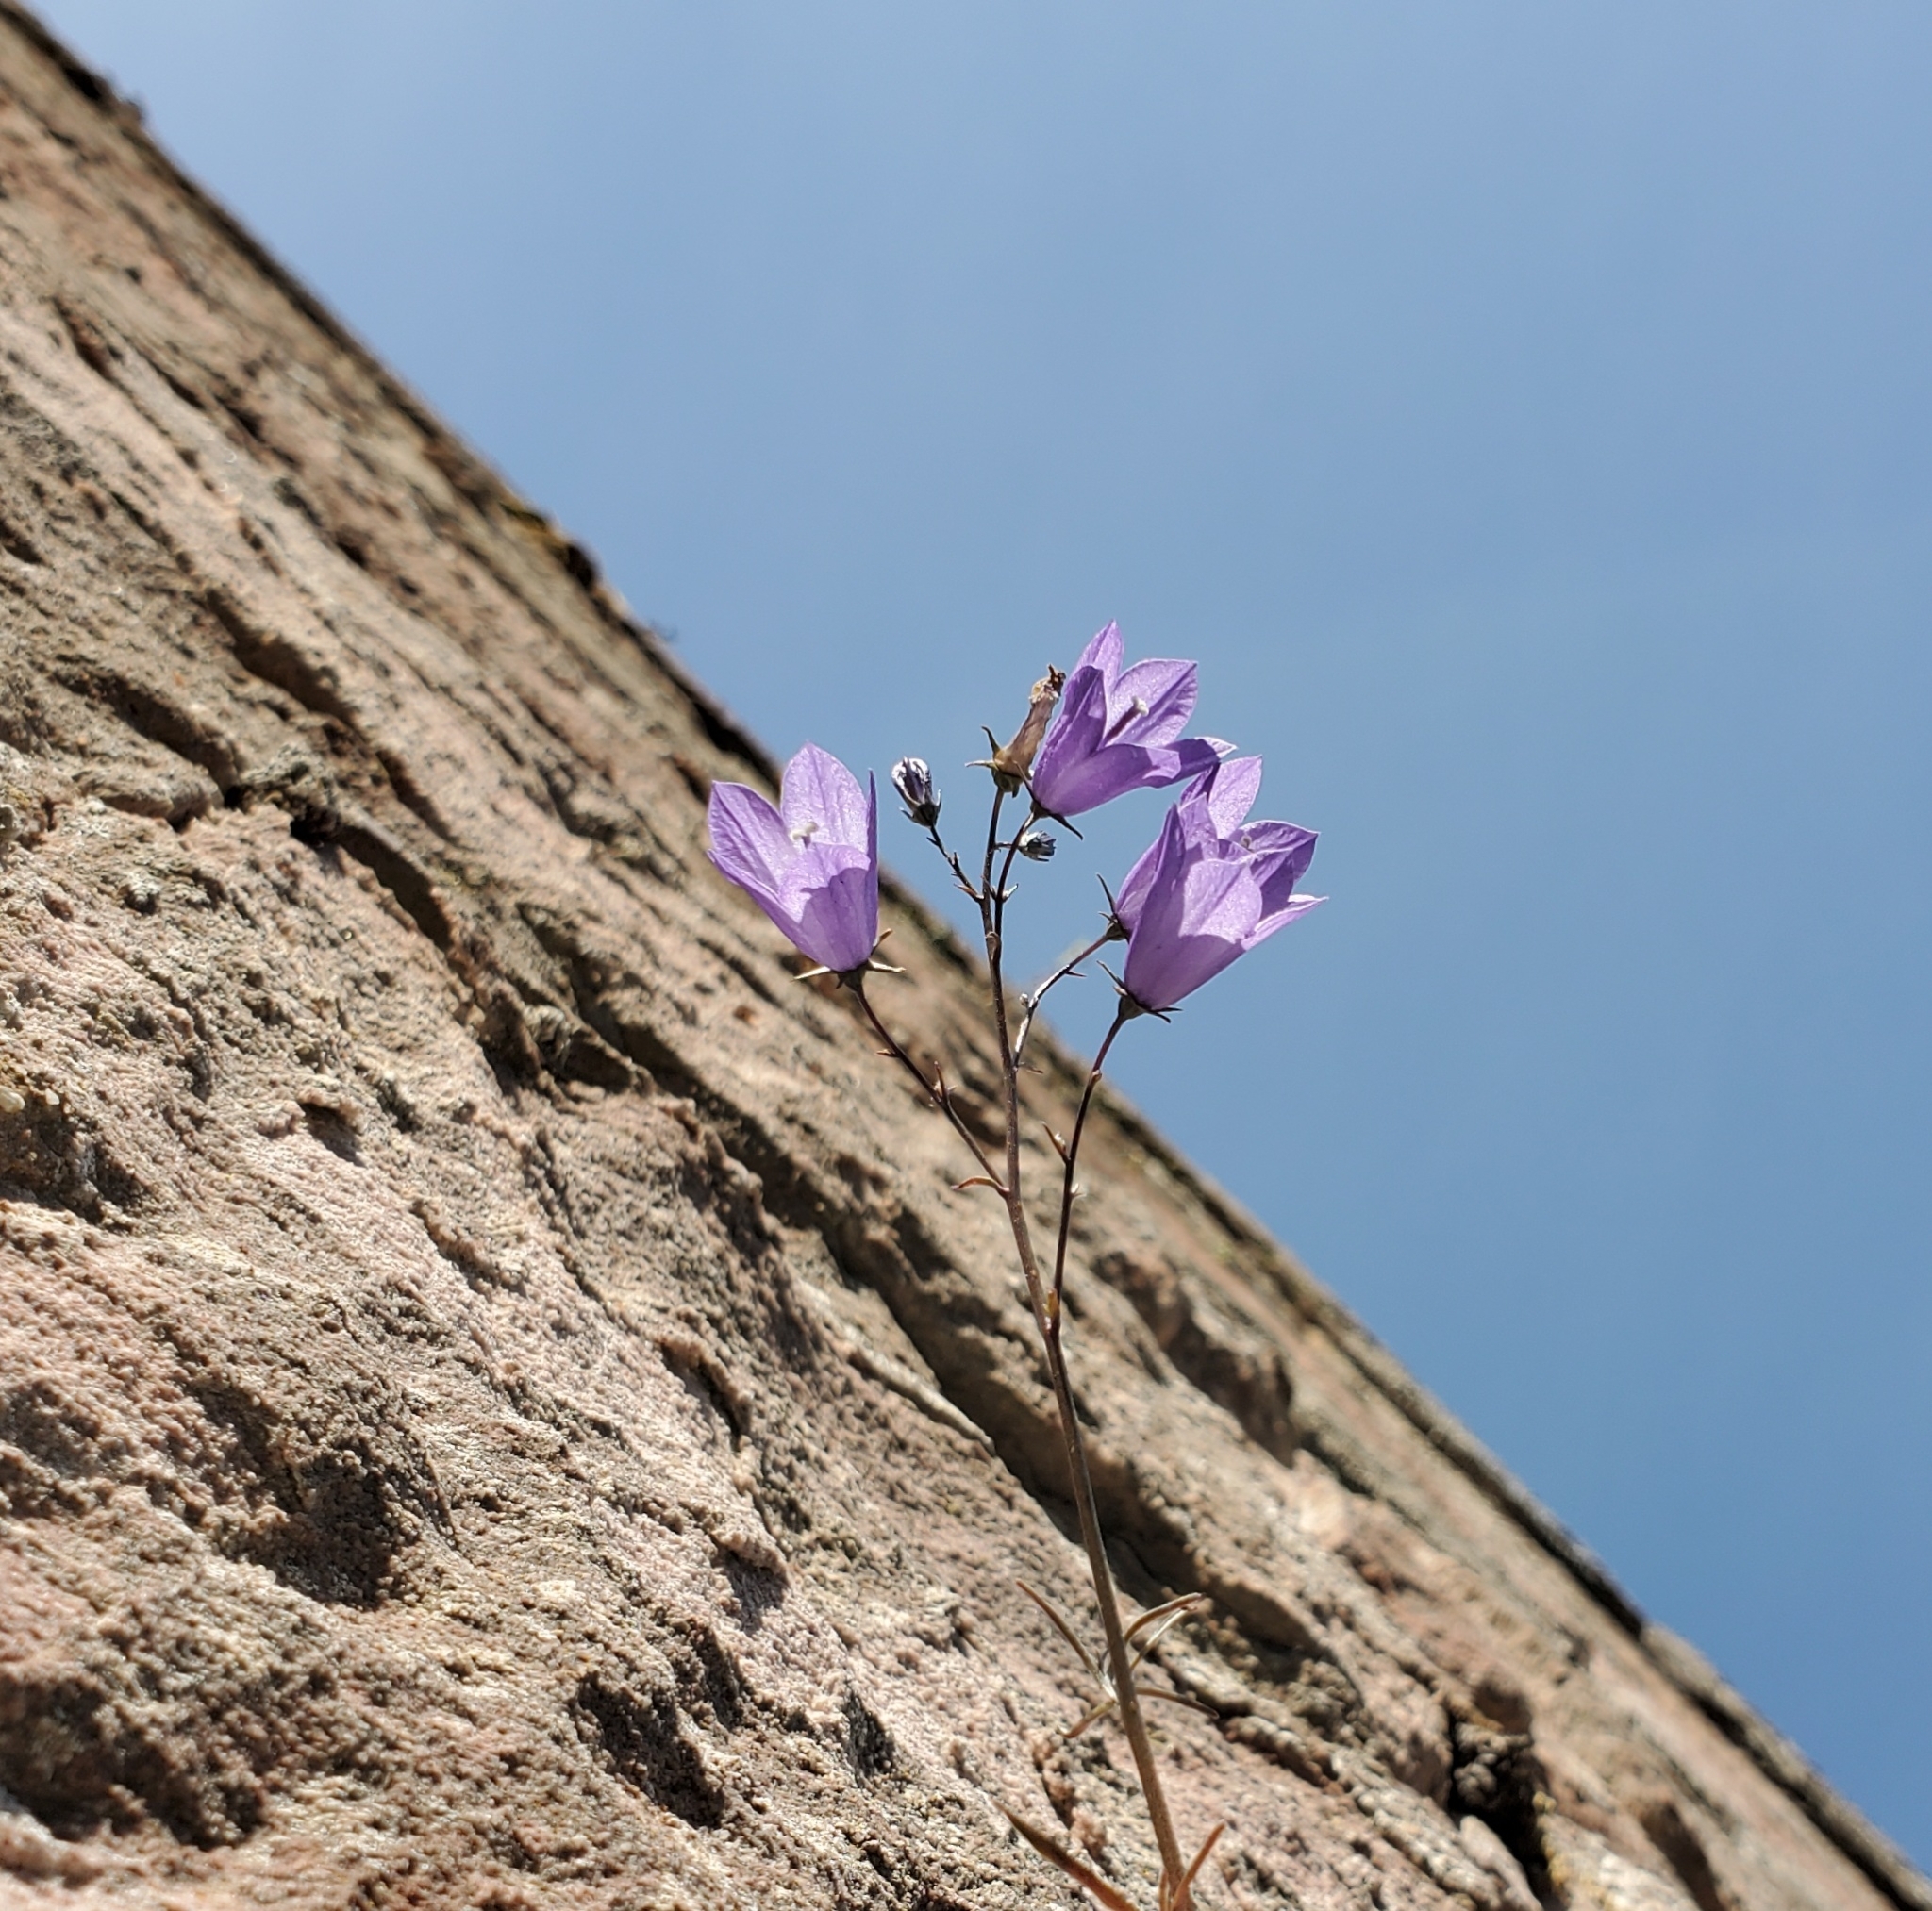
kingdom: Plantae
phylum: Tracheophyta
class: Magnoliopsida
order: Asterales
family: Campanulaceae
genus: Campanula
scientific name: Campanula rotundifolia
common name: Harebell
